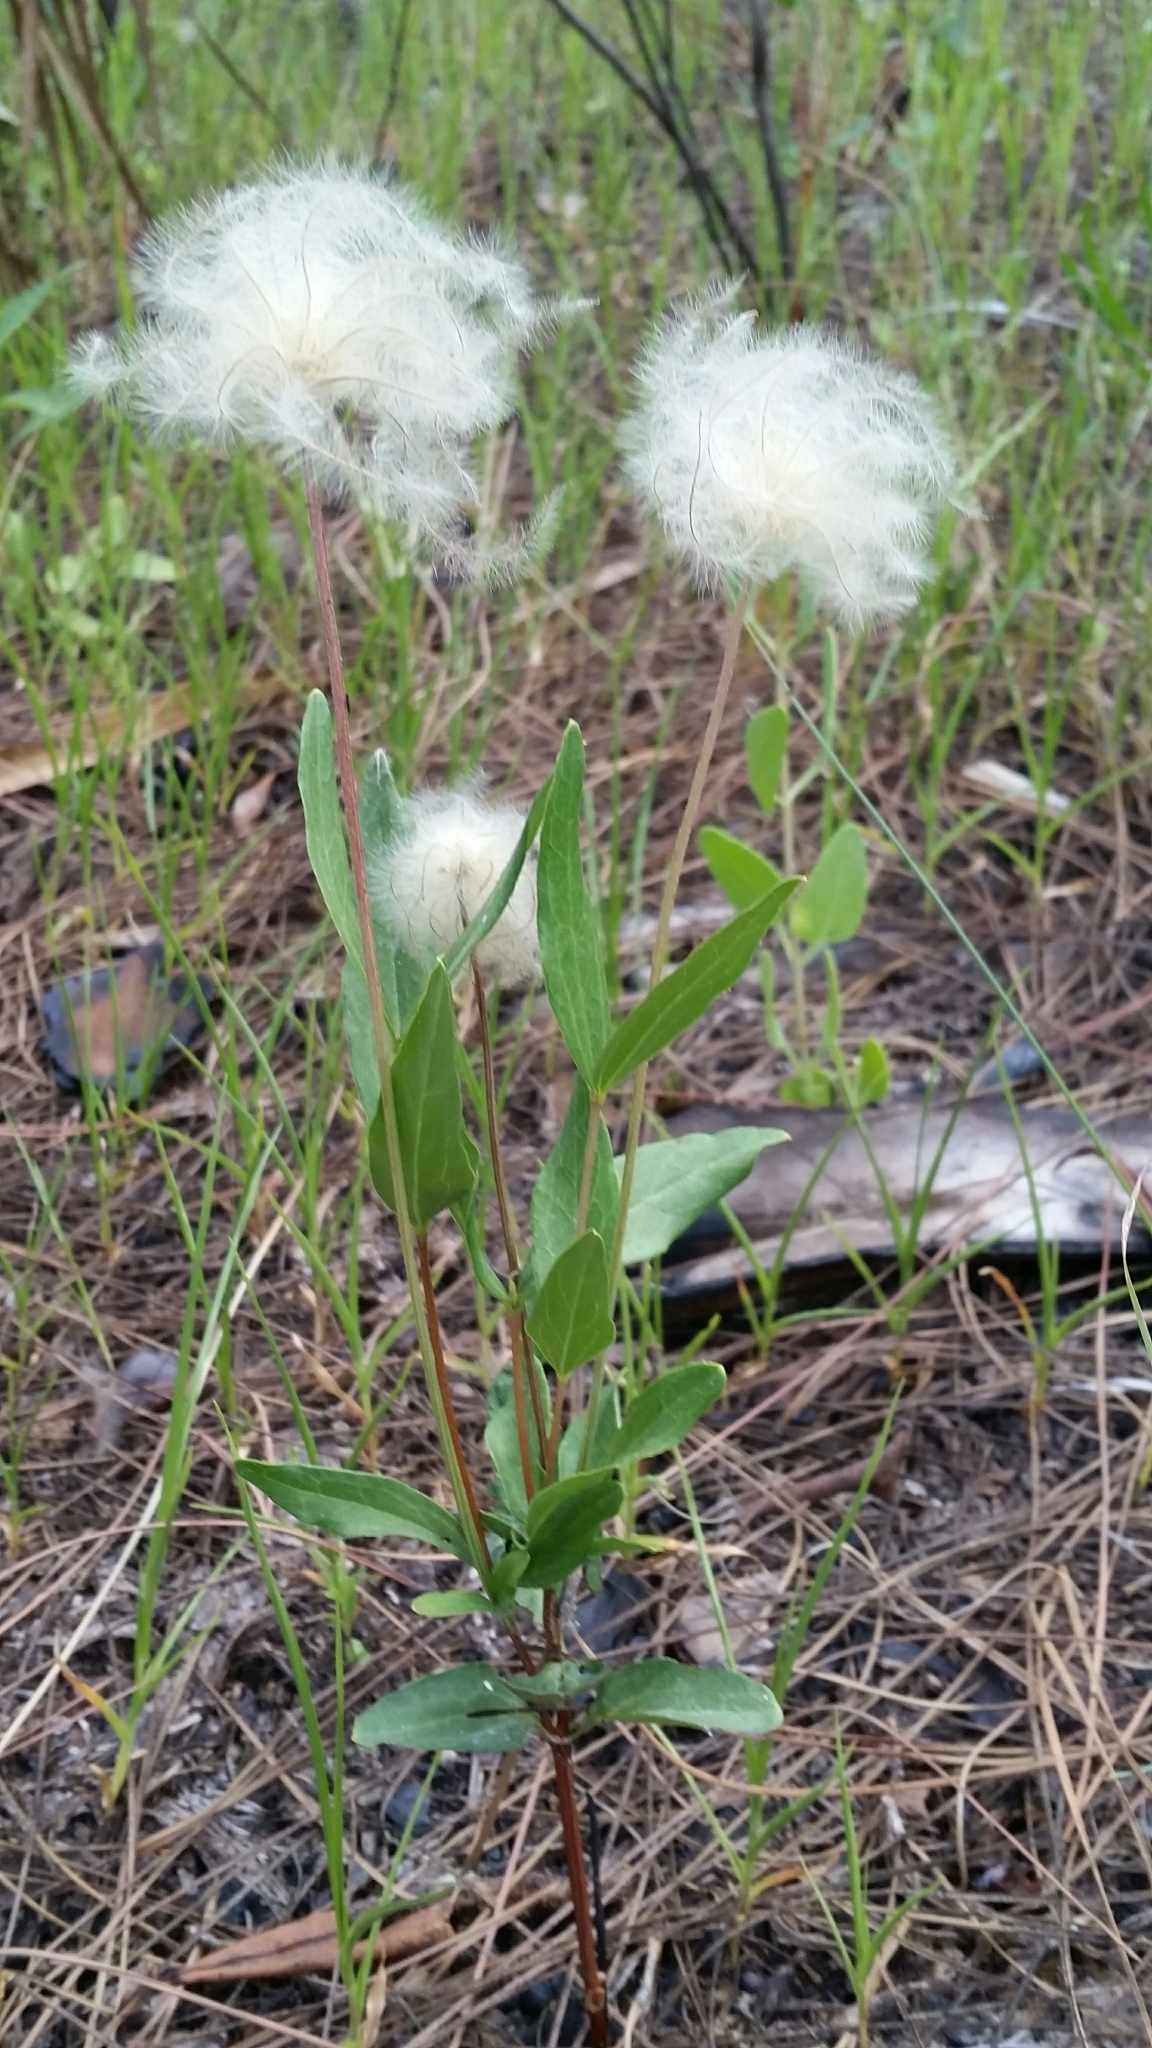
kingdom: Plantae
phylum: Tracheophyta
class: Magnoliopsida
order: Ranunculales
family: Ranunculaceae
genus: Clematis
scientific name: Clematis baldwinii
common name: Pine-hyacinth
